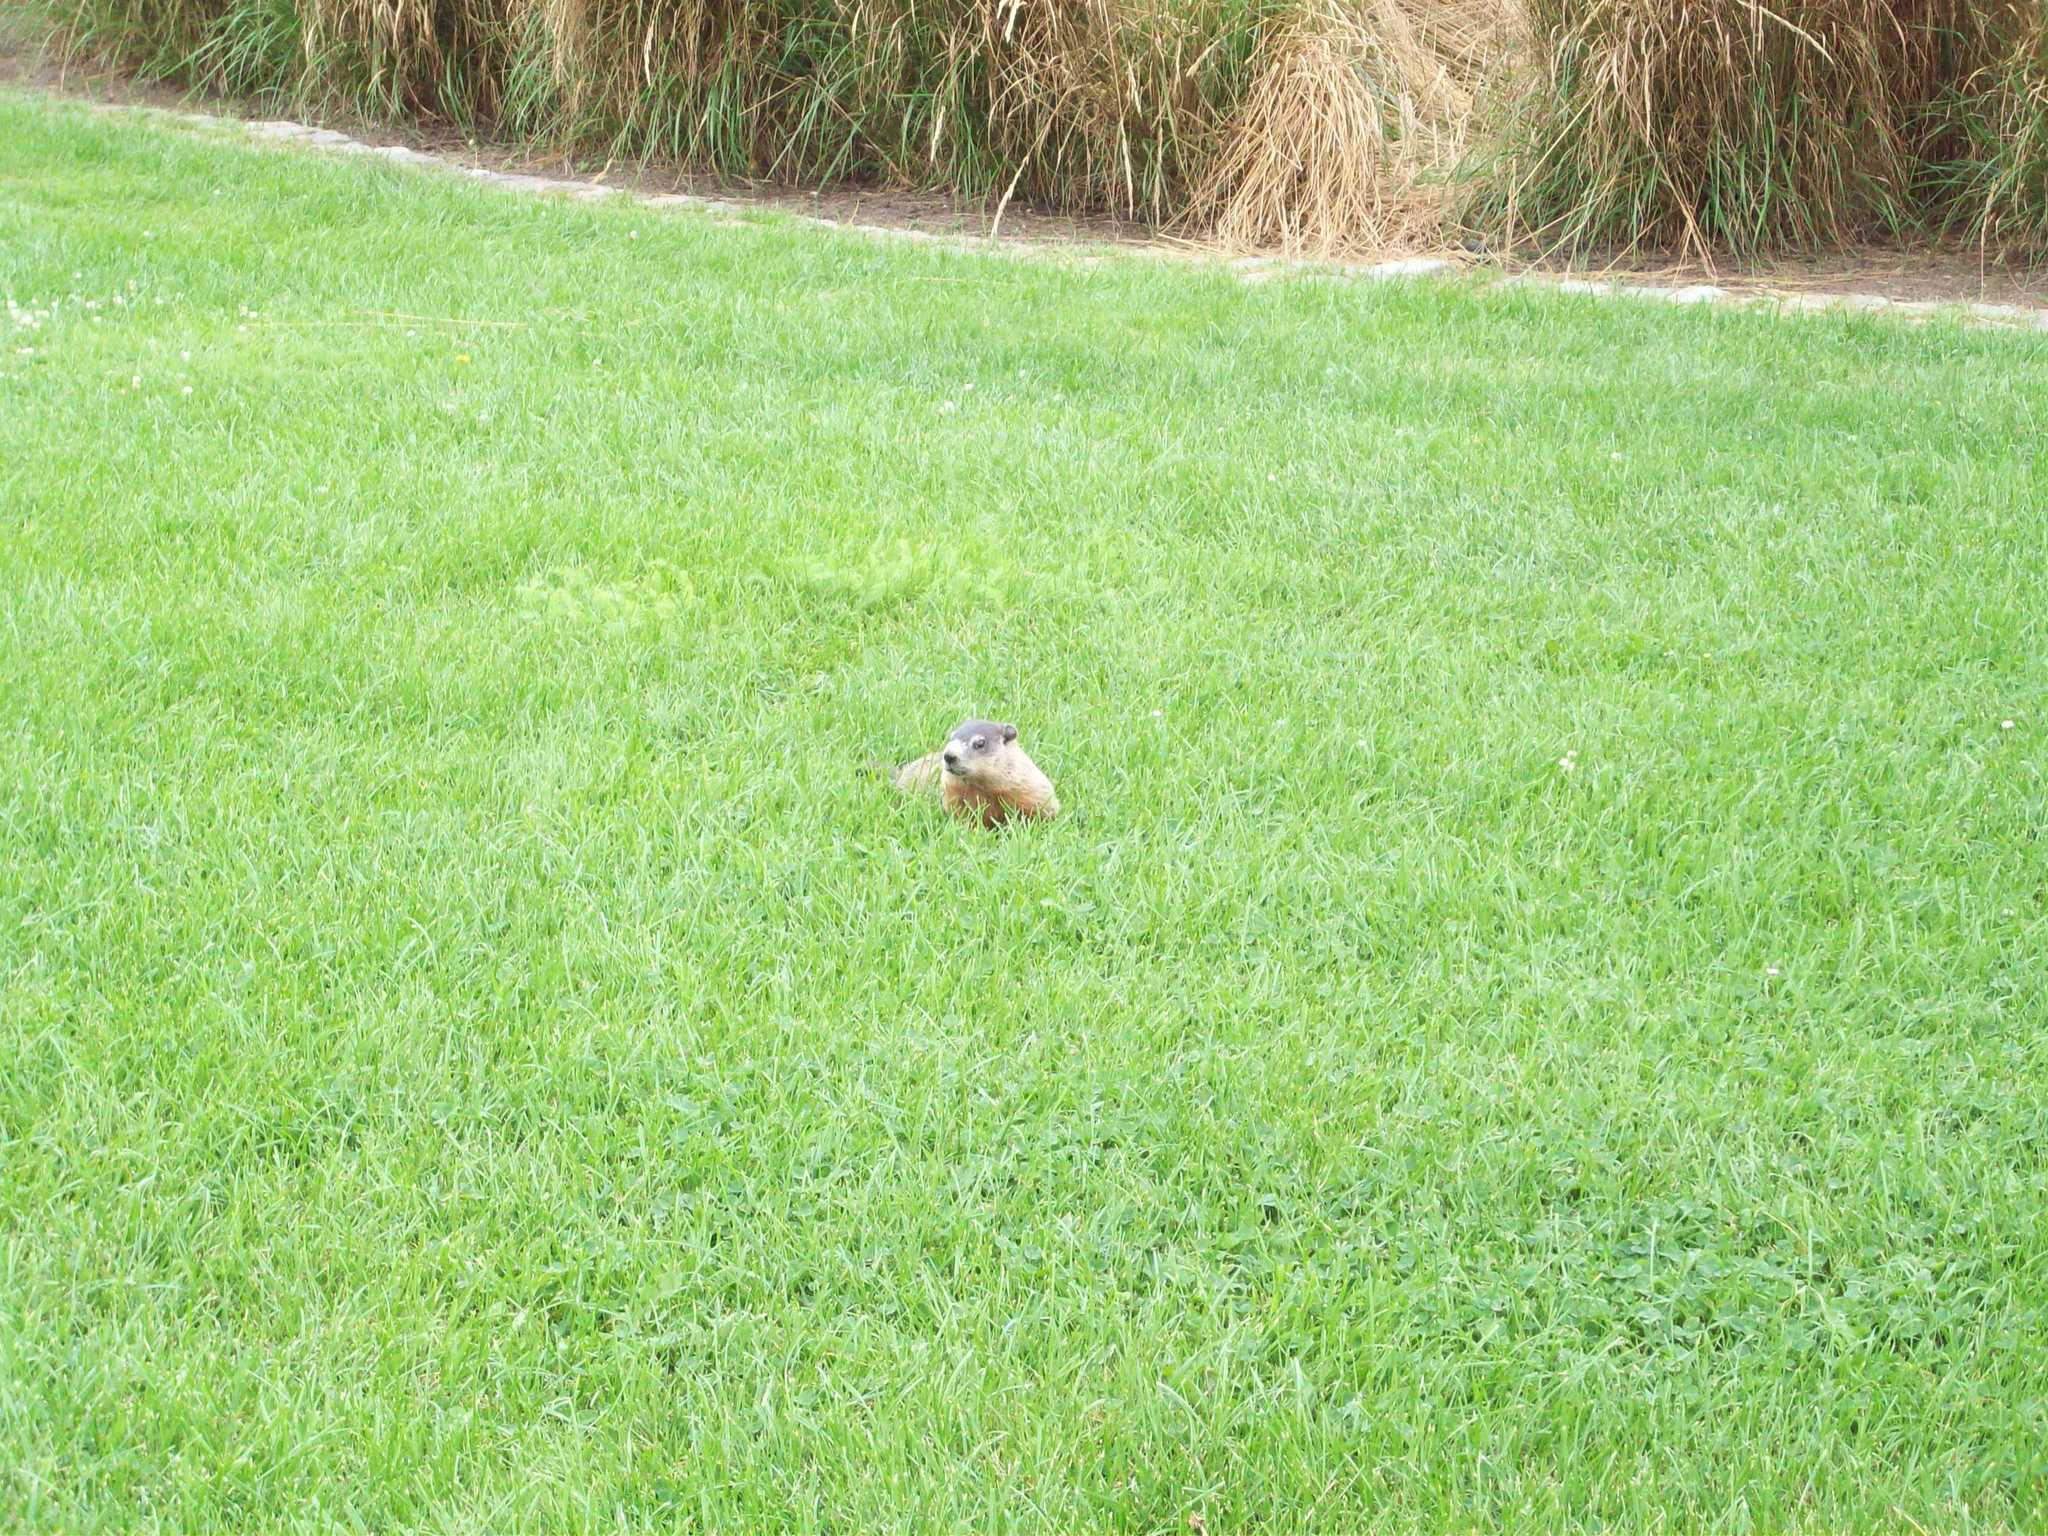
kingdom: Animalia
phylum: Chordata
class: Mammalia
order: Rodentia
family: Sciuridae
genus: Marmota
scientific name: Marmota monax
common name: Groundhog
